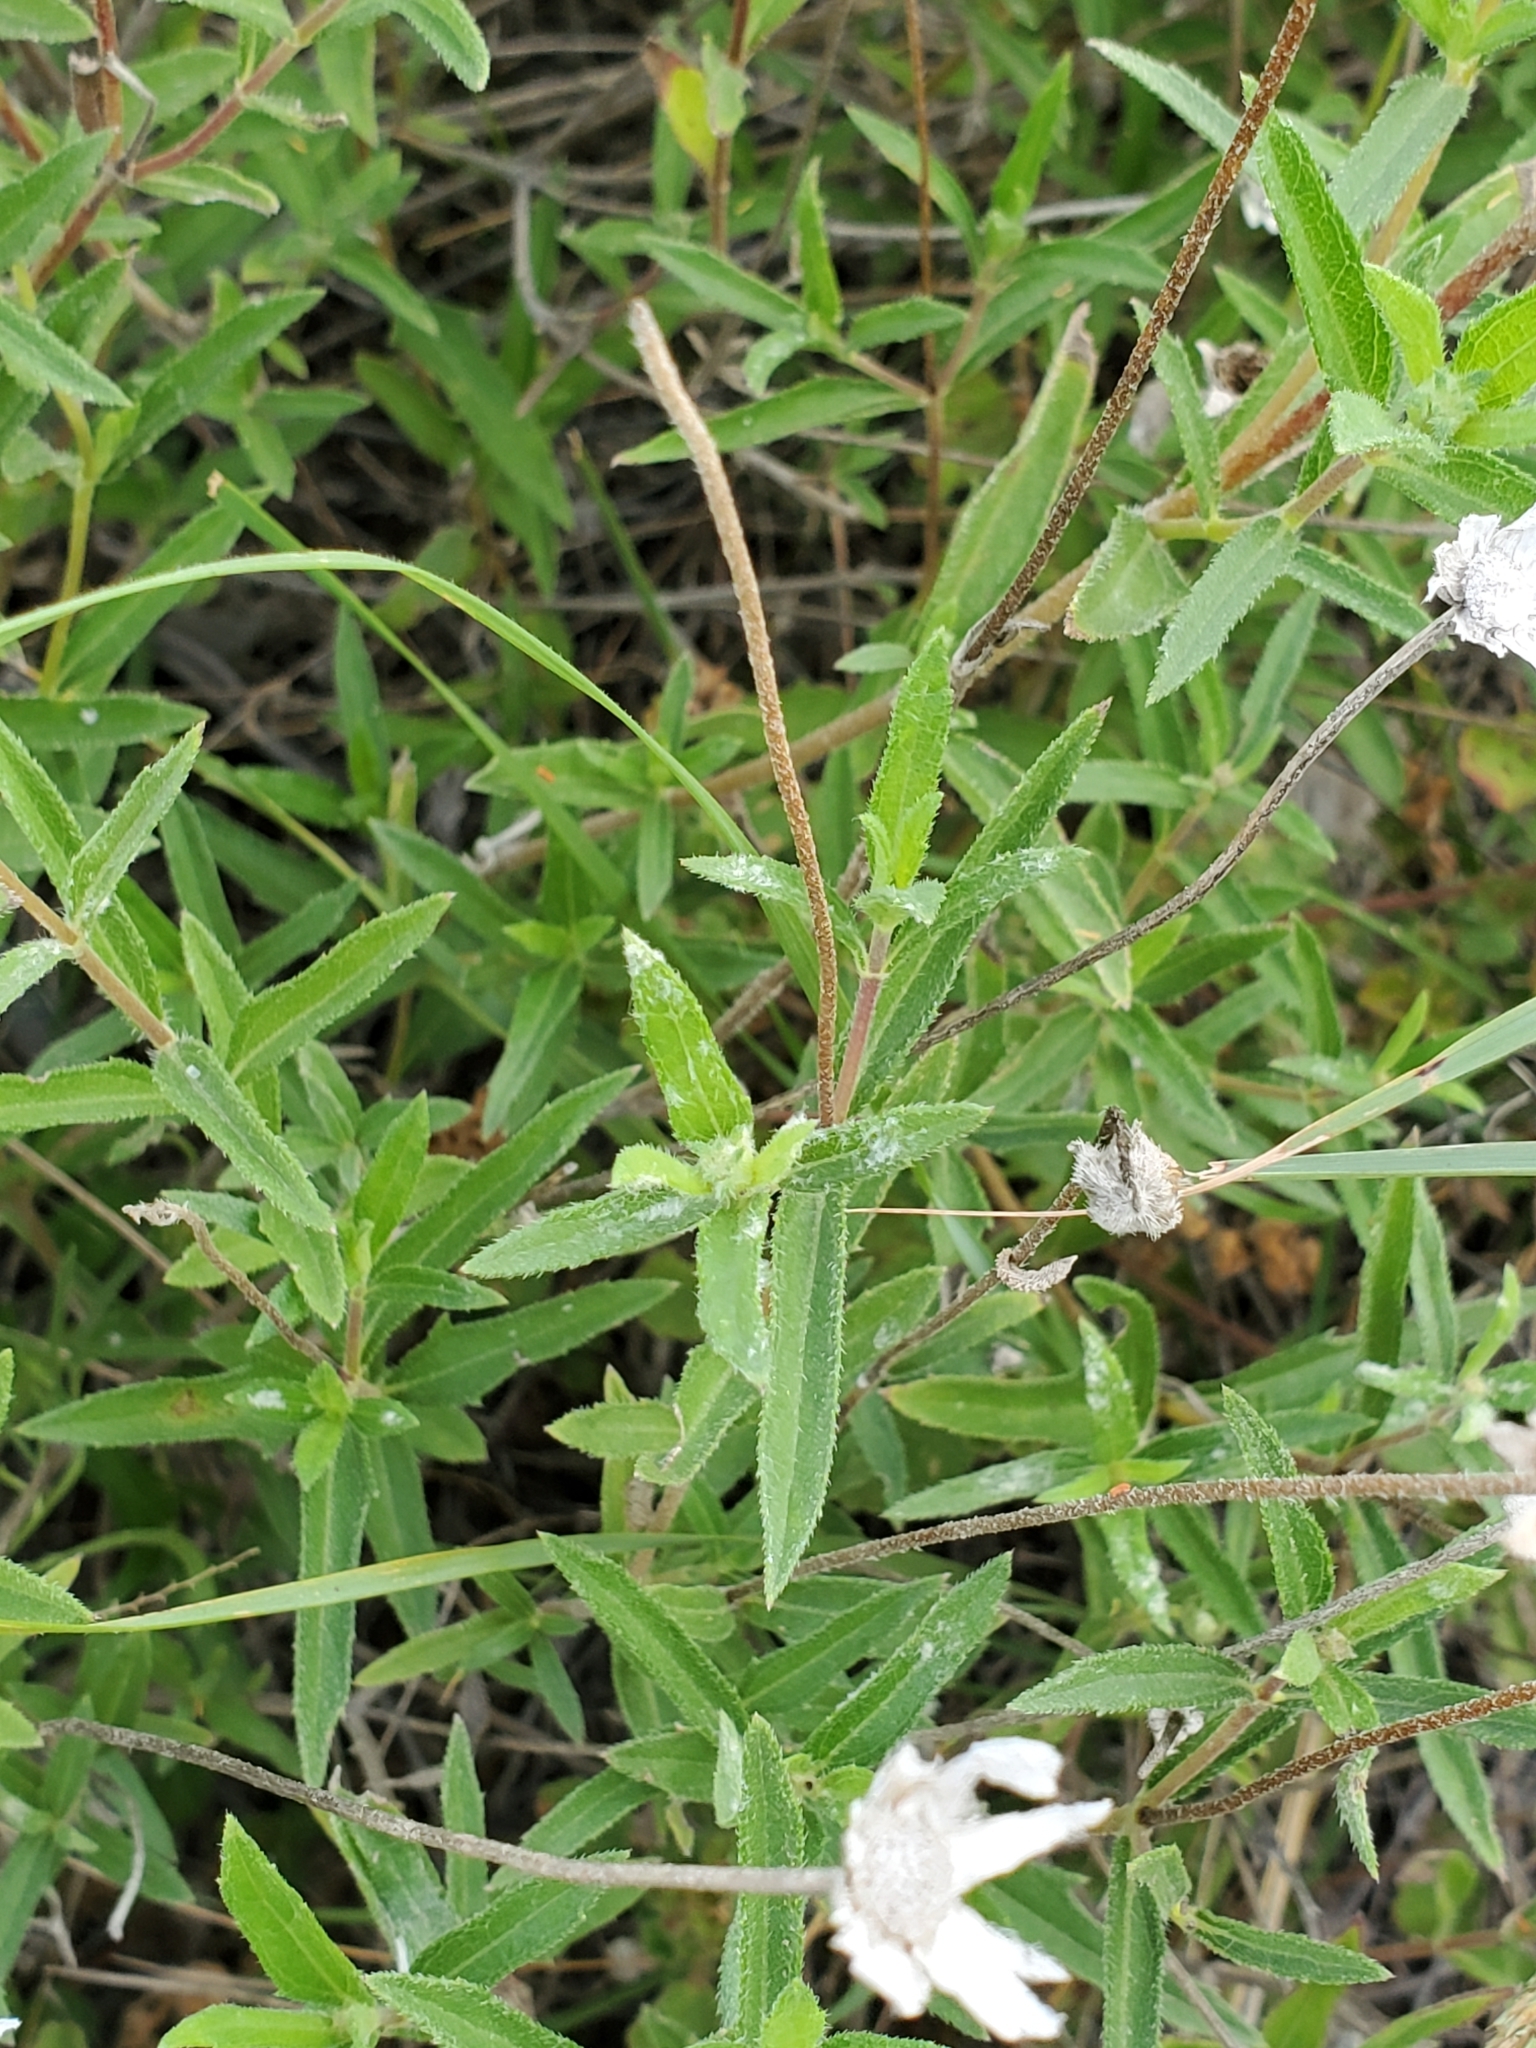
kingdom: Plantae
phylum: Tracheophyta
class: Magnoliopsida
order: Asterales
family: Asteraceae
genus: Wedelia
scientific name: Wedelia acapulcensis
